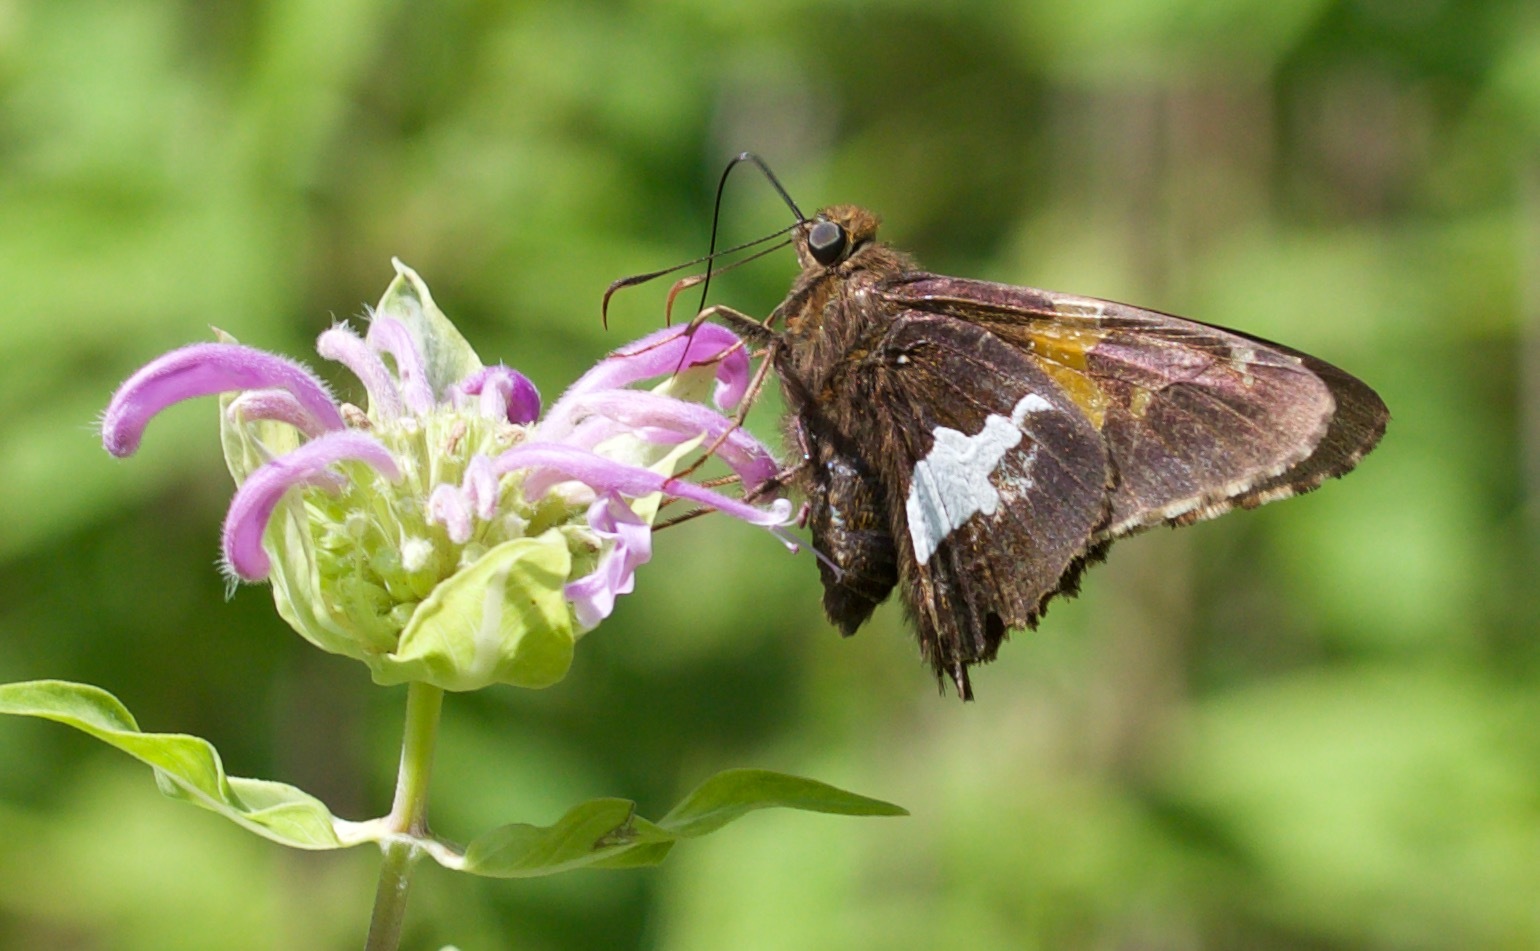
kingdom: Animalia
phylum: Arthropoda
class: Insecta
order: Lepidoptera
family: Hesperiidae
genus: Epargyreus
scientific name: Epargyreus clarus
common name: Silver-spotted skipper
